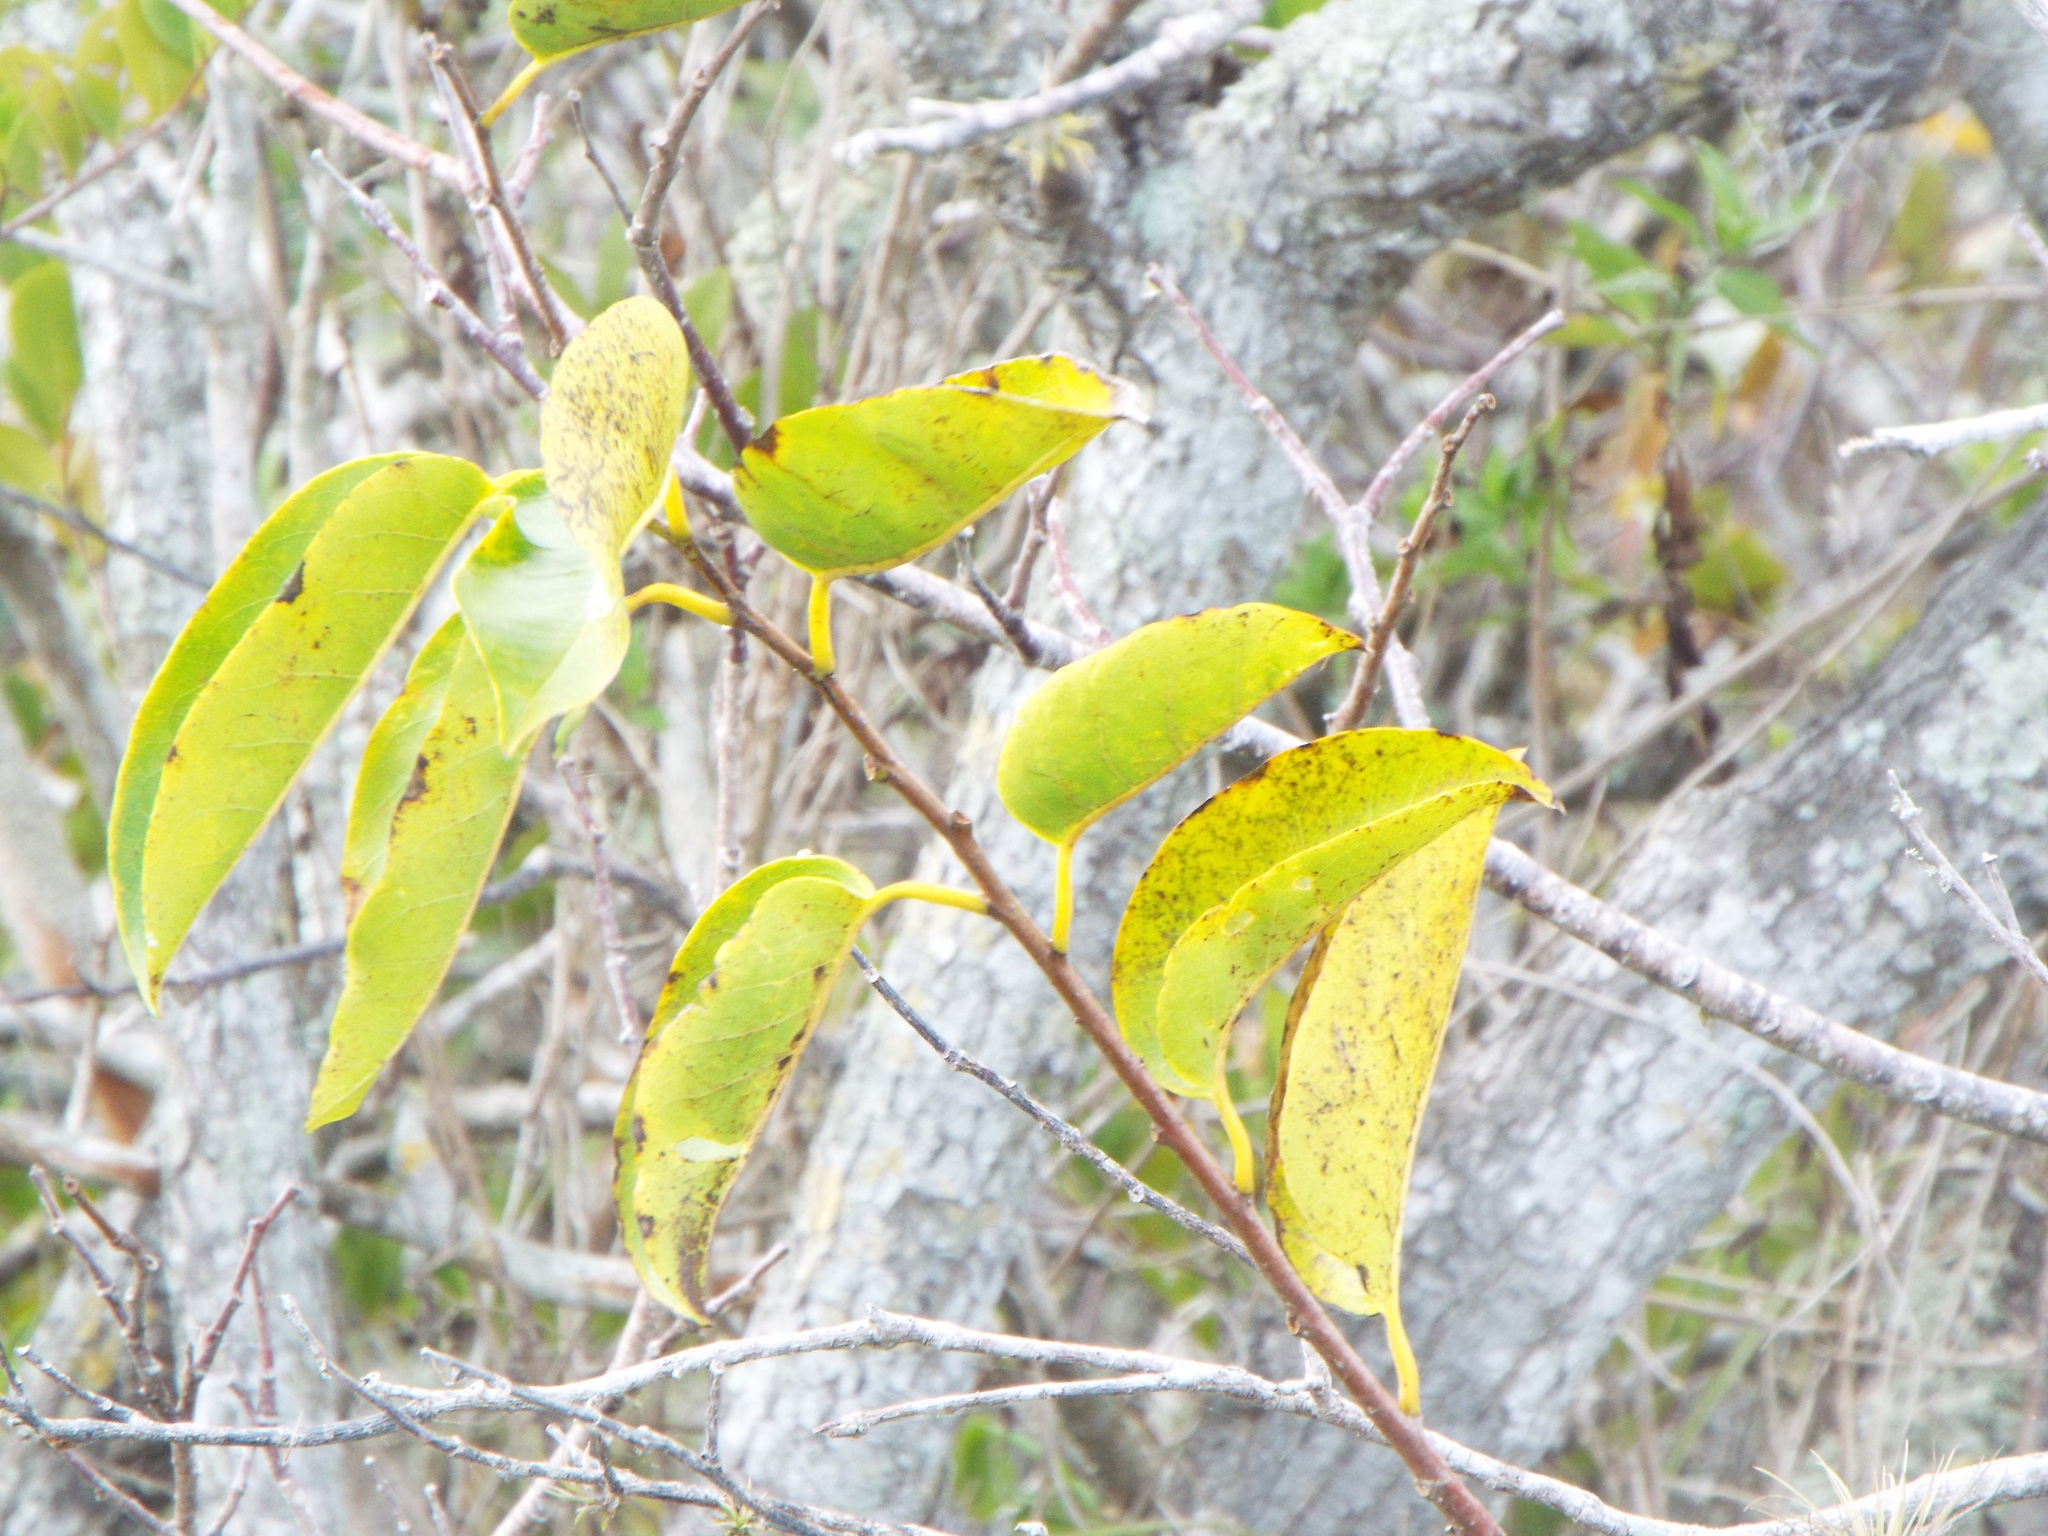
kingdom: Plantae
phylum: Tracheophyta
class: Magnoliopsida
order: Magnoliales
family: Annonaceae
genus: Annona
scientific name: Annona glabra
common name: Monkey apple
